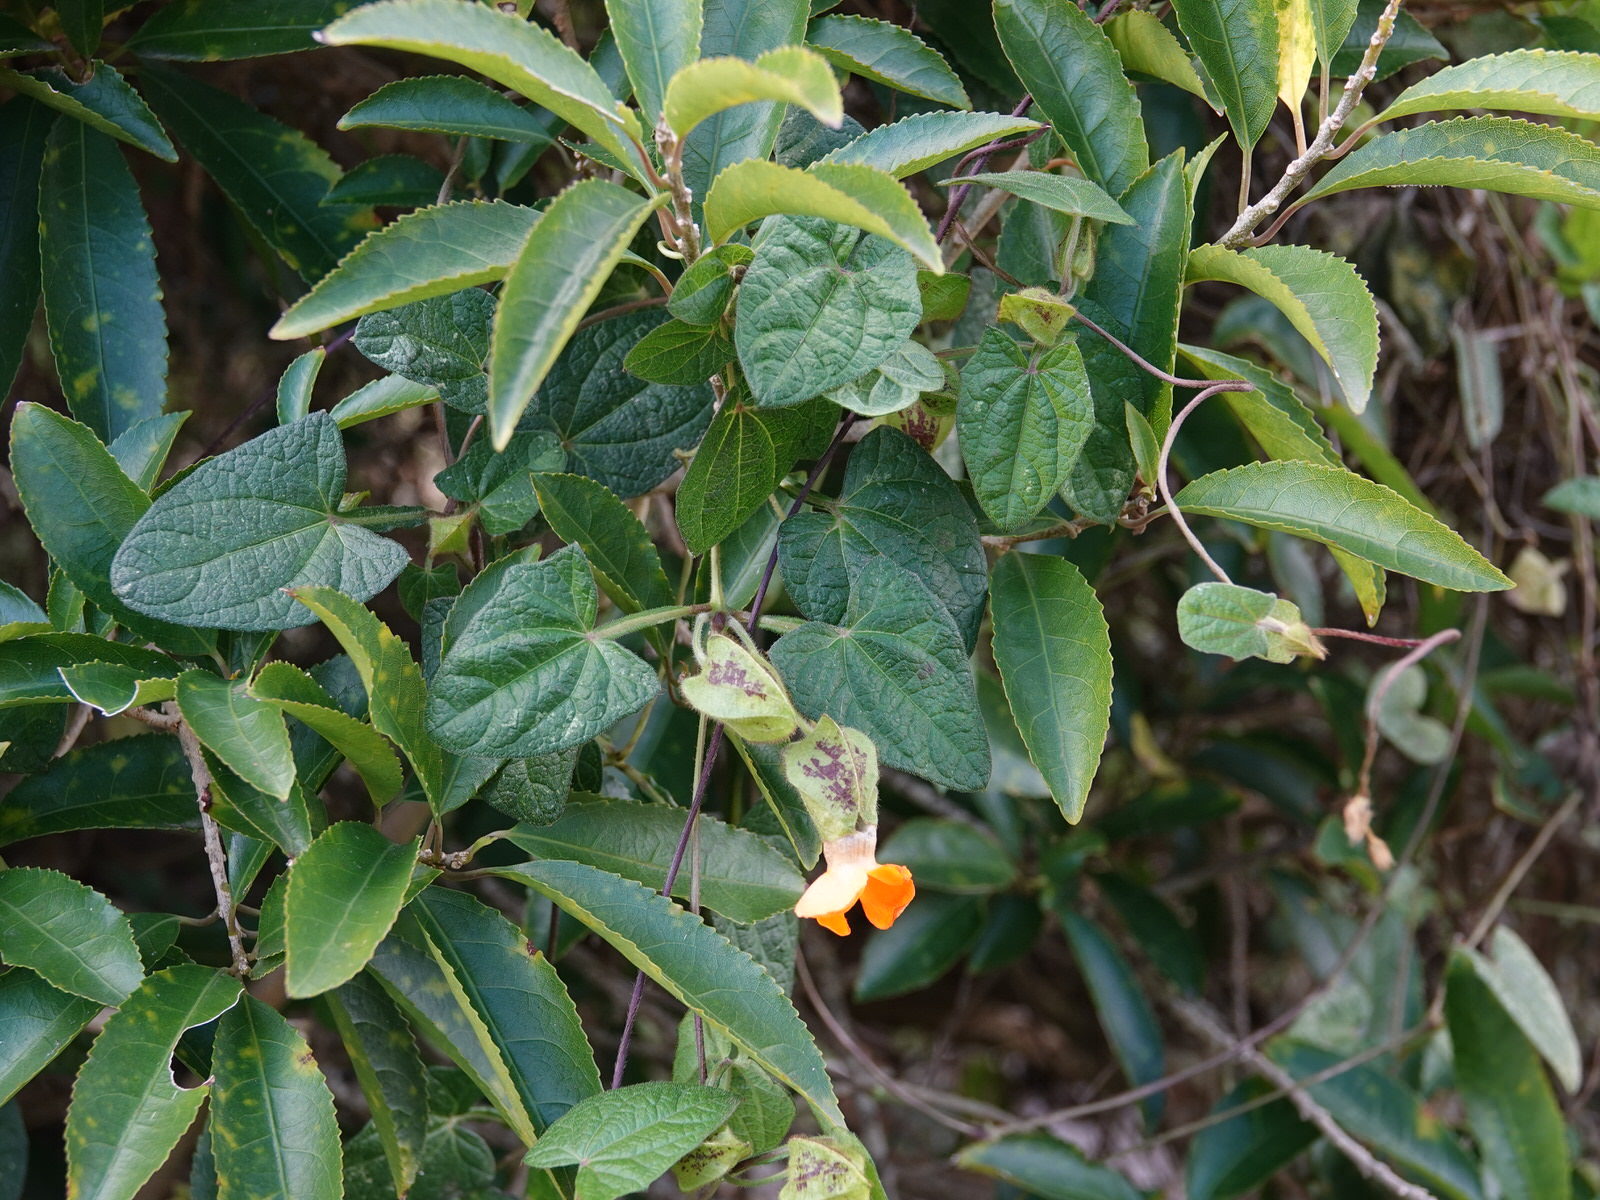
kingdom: Plantae
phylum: Tracheophyta
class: Magnoliopsida
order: Lamiales
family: Acanthaceae
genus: Thunbergia
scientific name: Thunbergia alata
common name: Blackeyed susan vine
